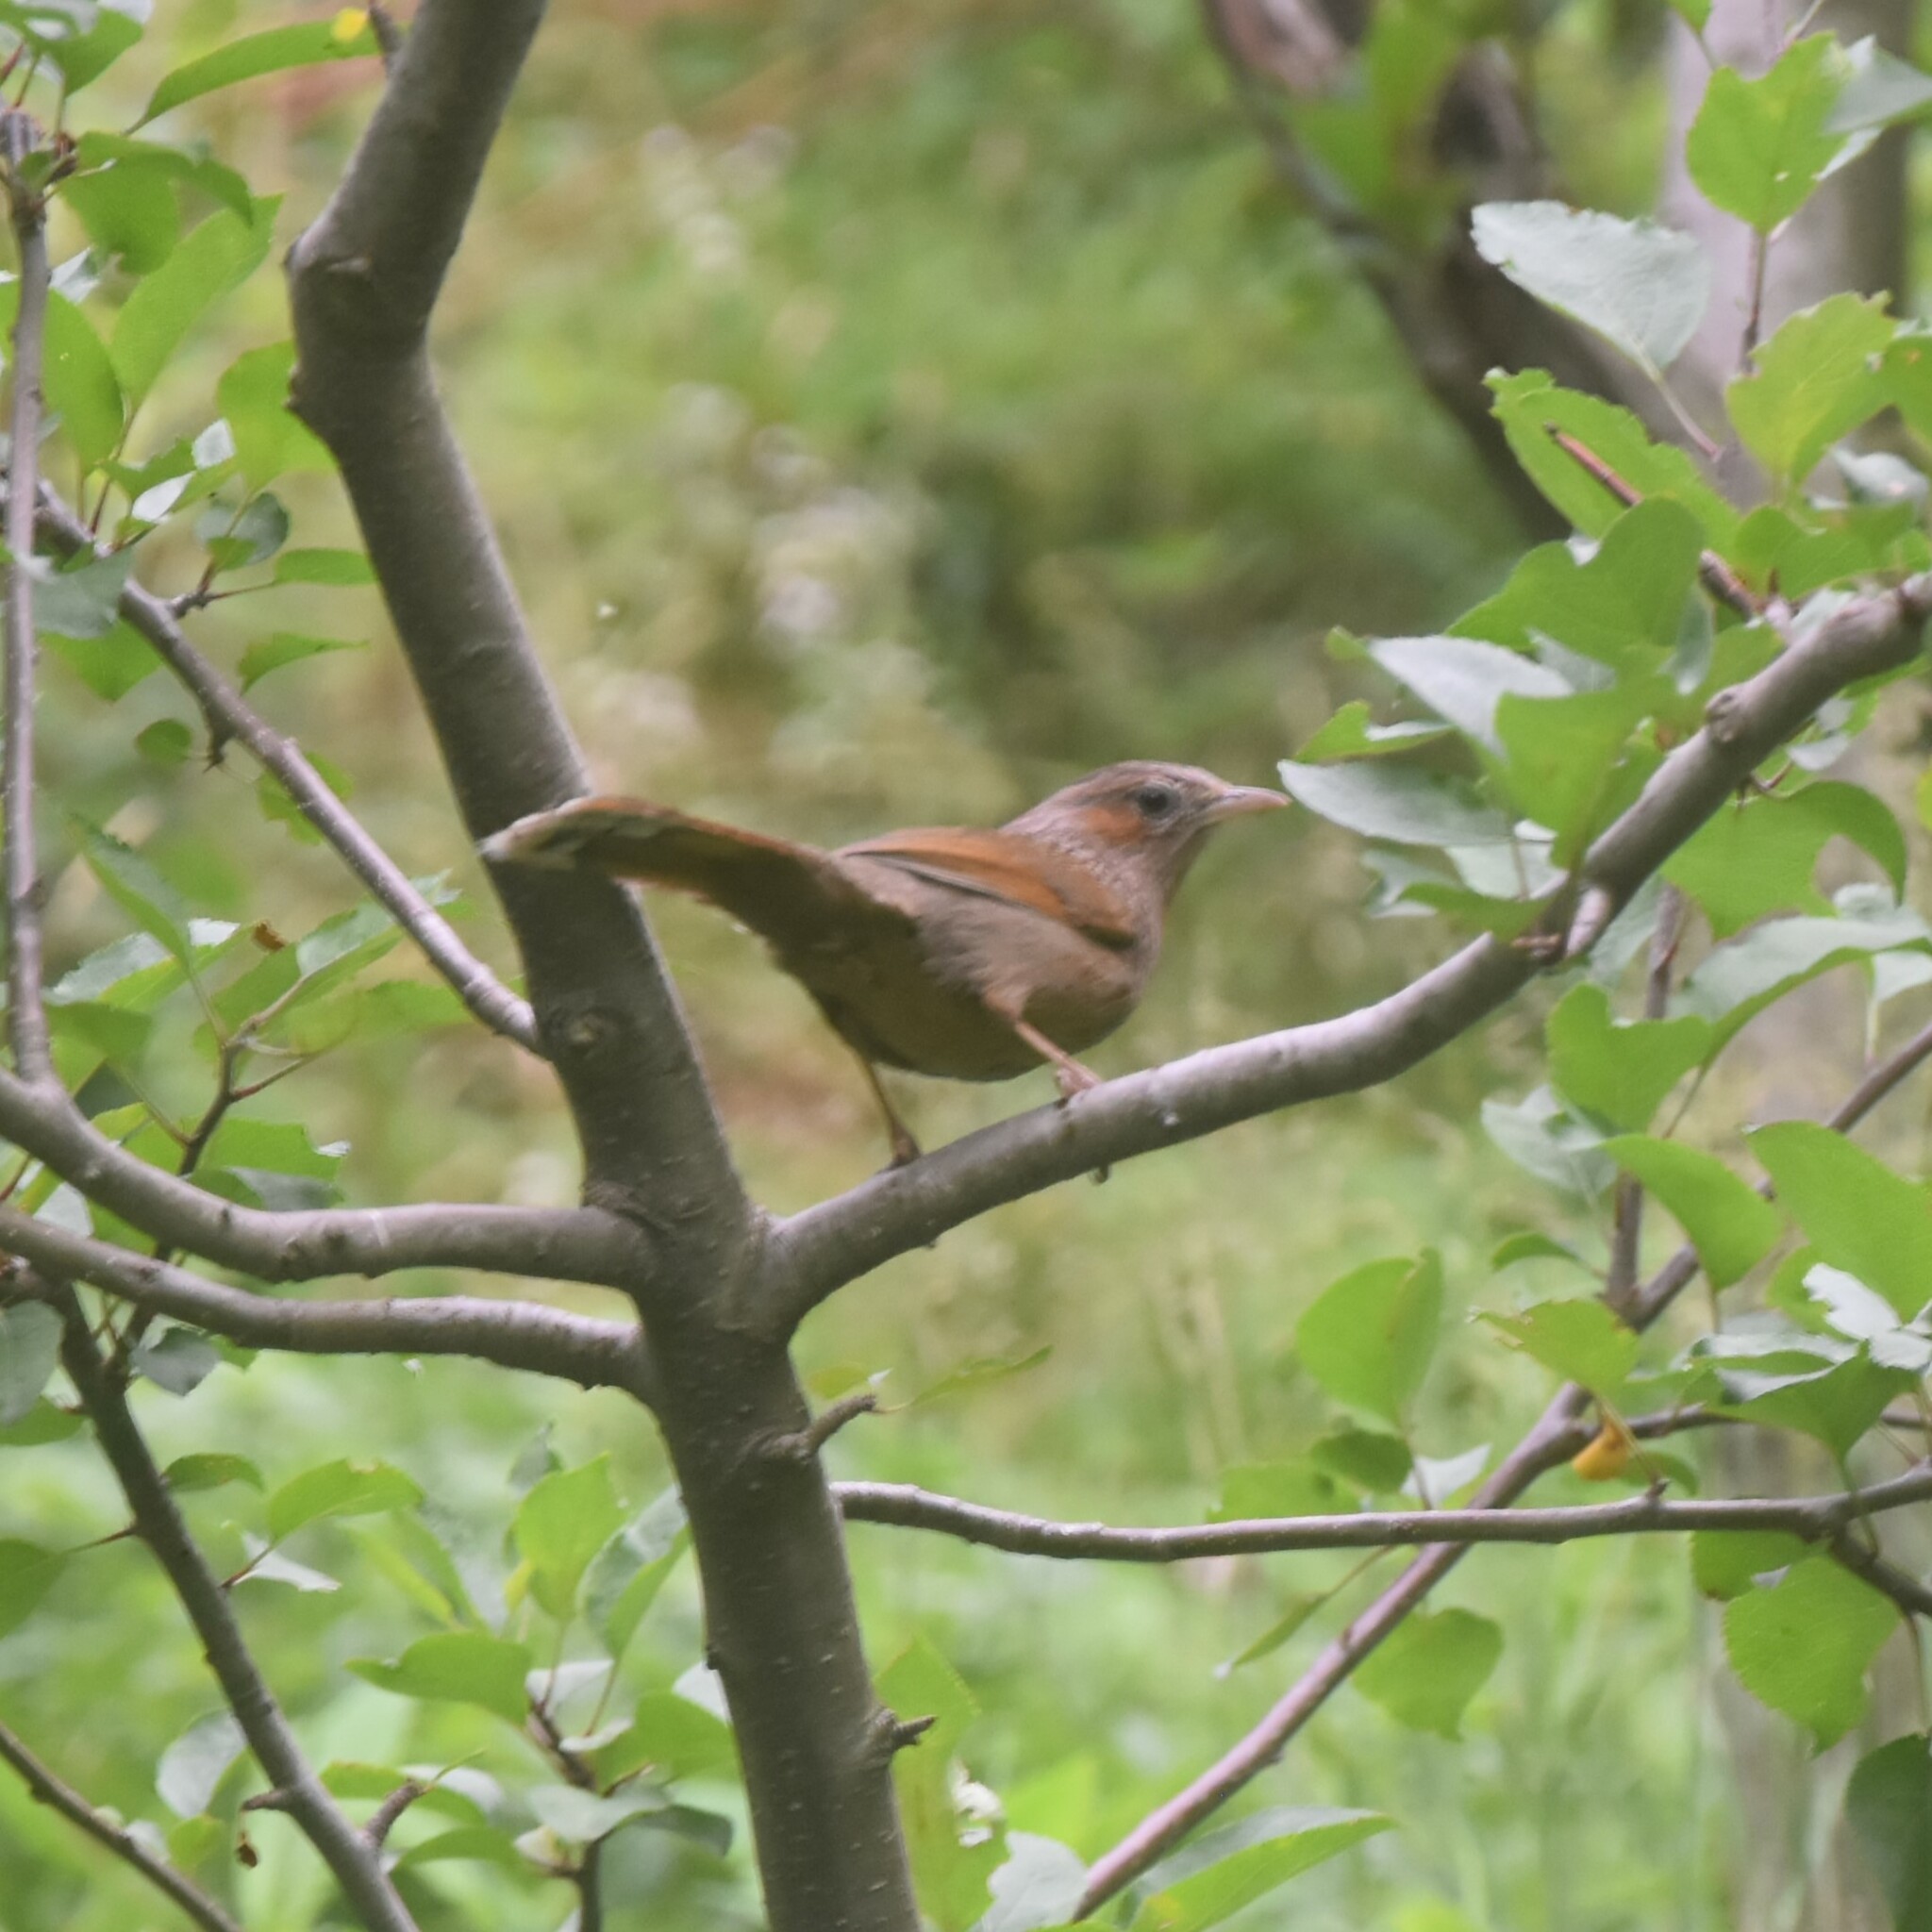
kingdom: Animalia
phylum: Chordata
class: Aves
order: Passeriformes
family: Leiothrichidae
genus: Trochalopteron
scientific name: Trochalopteron lineatum
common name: Streaked laughingthrush
